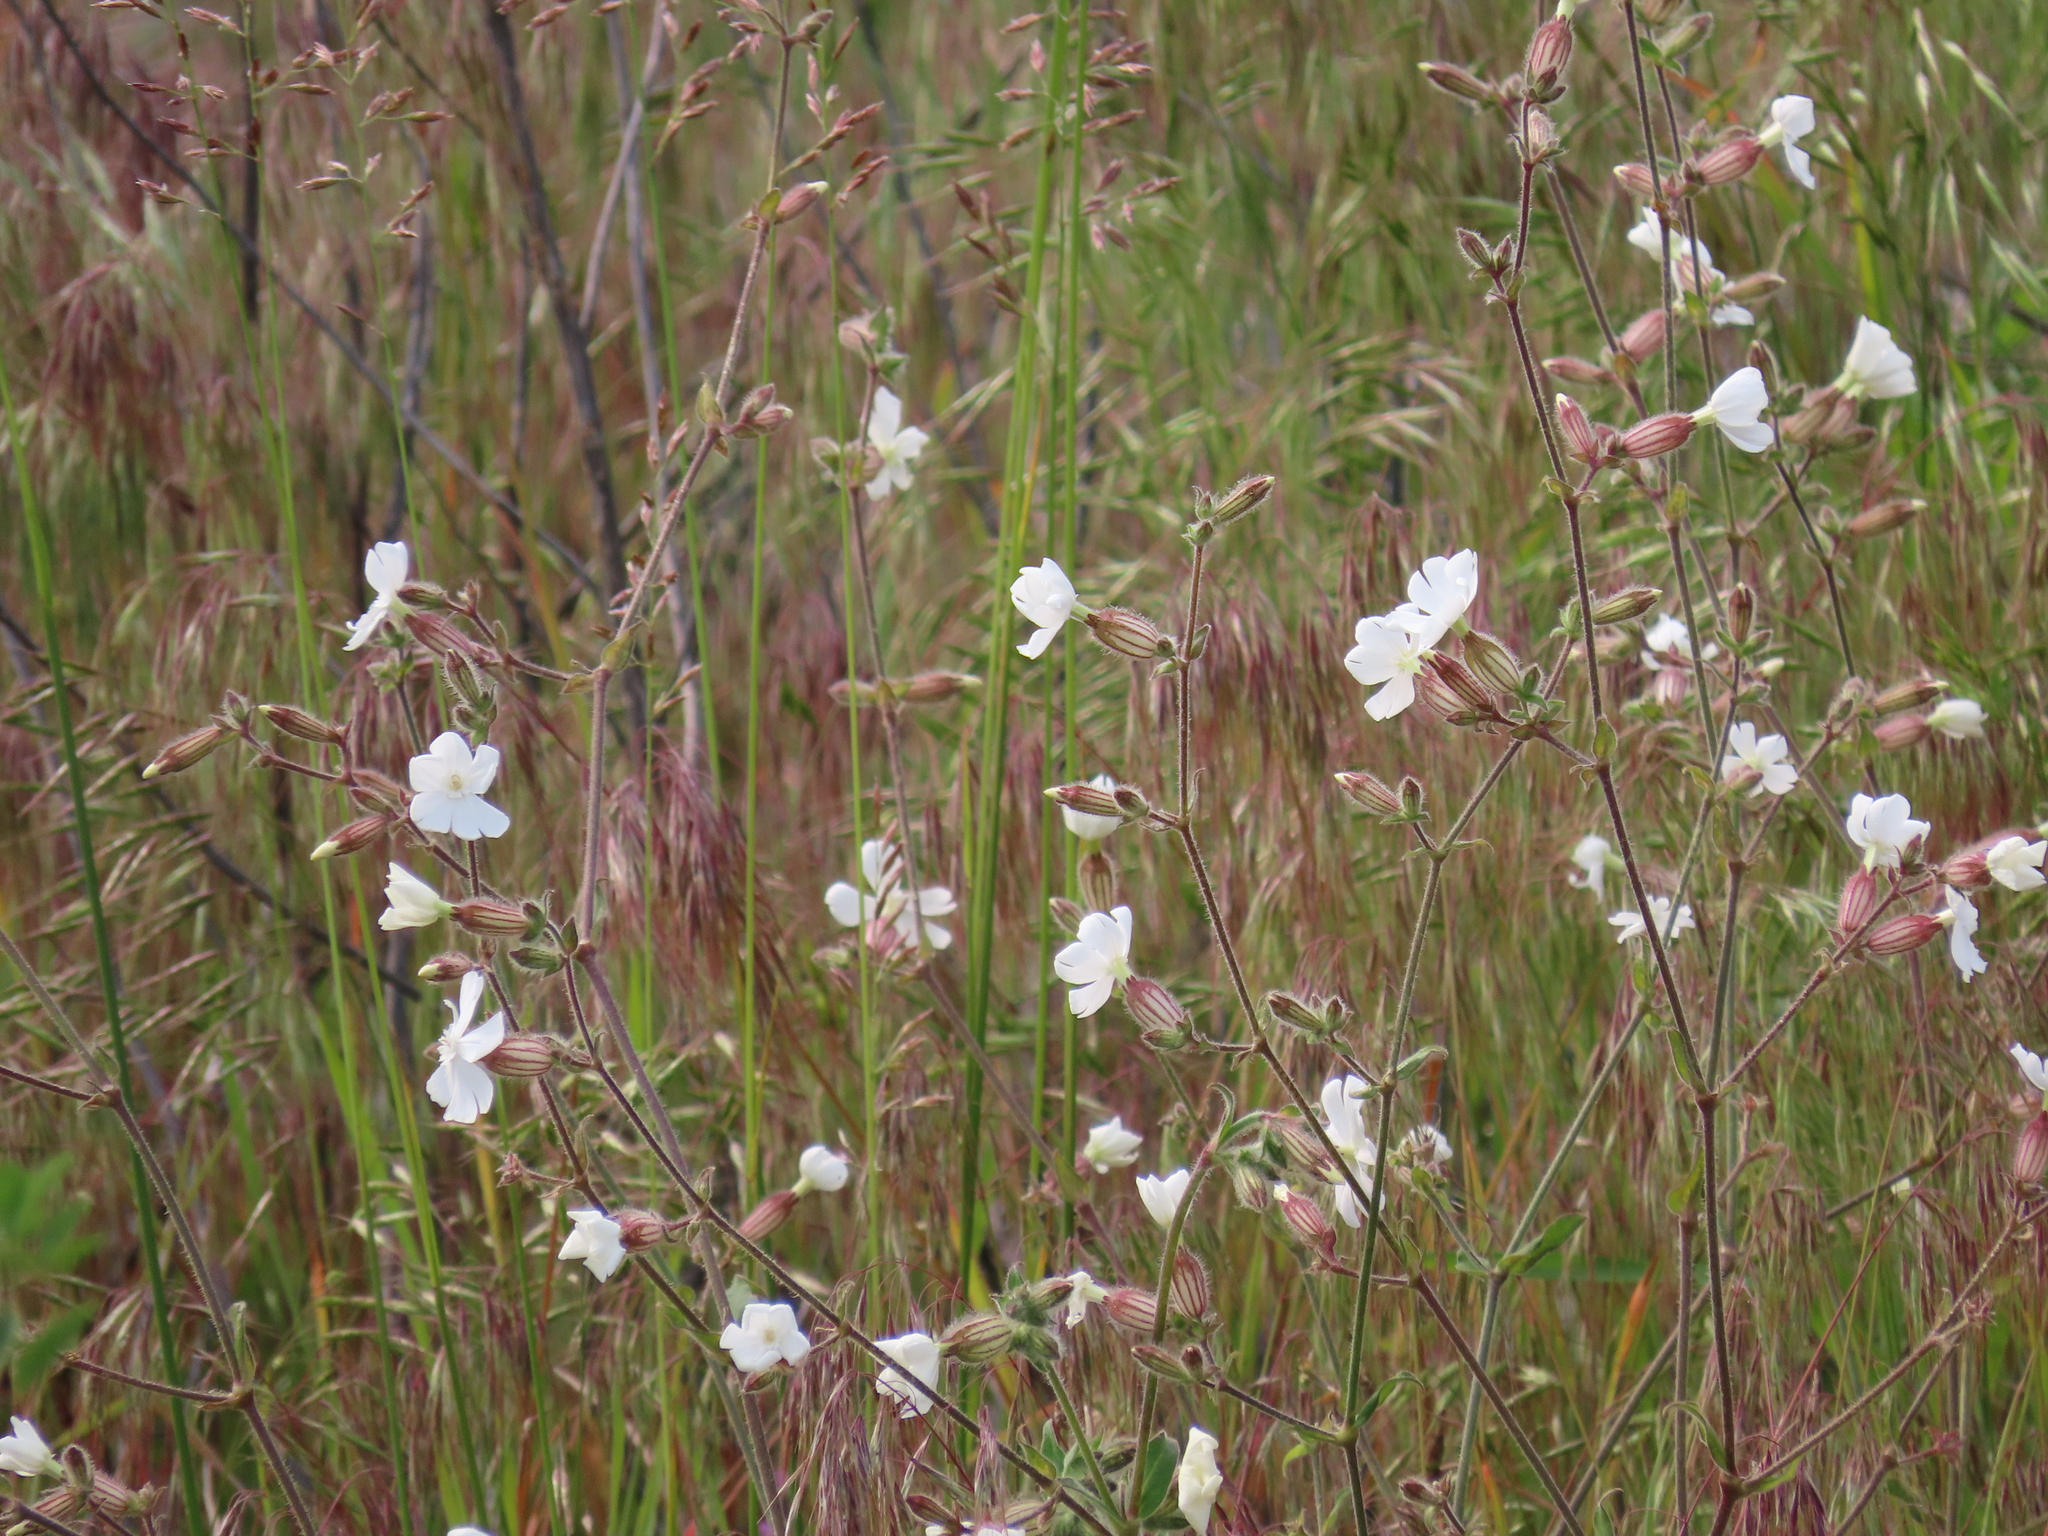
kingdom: Plantae
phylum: Tracheophyta
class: Magnoliopsida
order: Caryophyllales
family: Caryophyllaceae
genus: Silene
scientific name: Silene latifolia
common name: White campion
